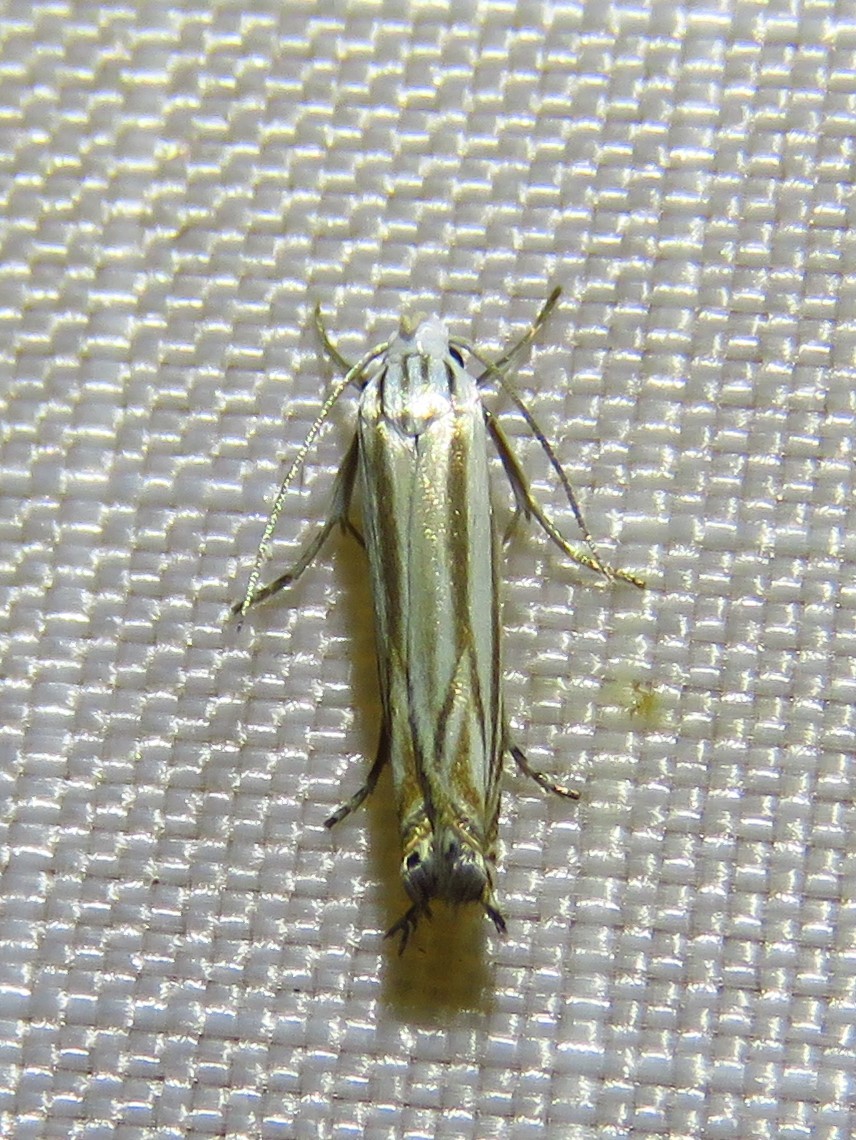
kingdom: Animalia
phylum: Arthropoda
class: Insecta
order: Lepidoptera
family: Gelechiidae
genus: Polyhymno
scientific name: Polyhymno luteostrigella
